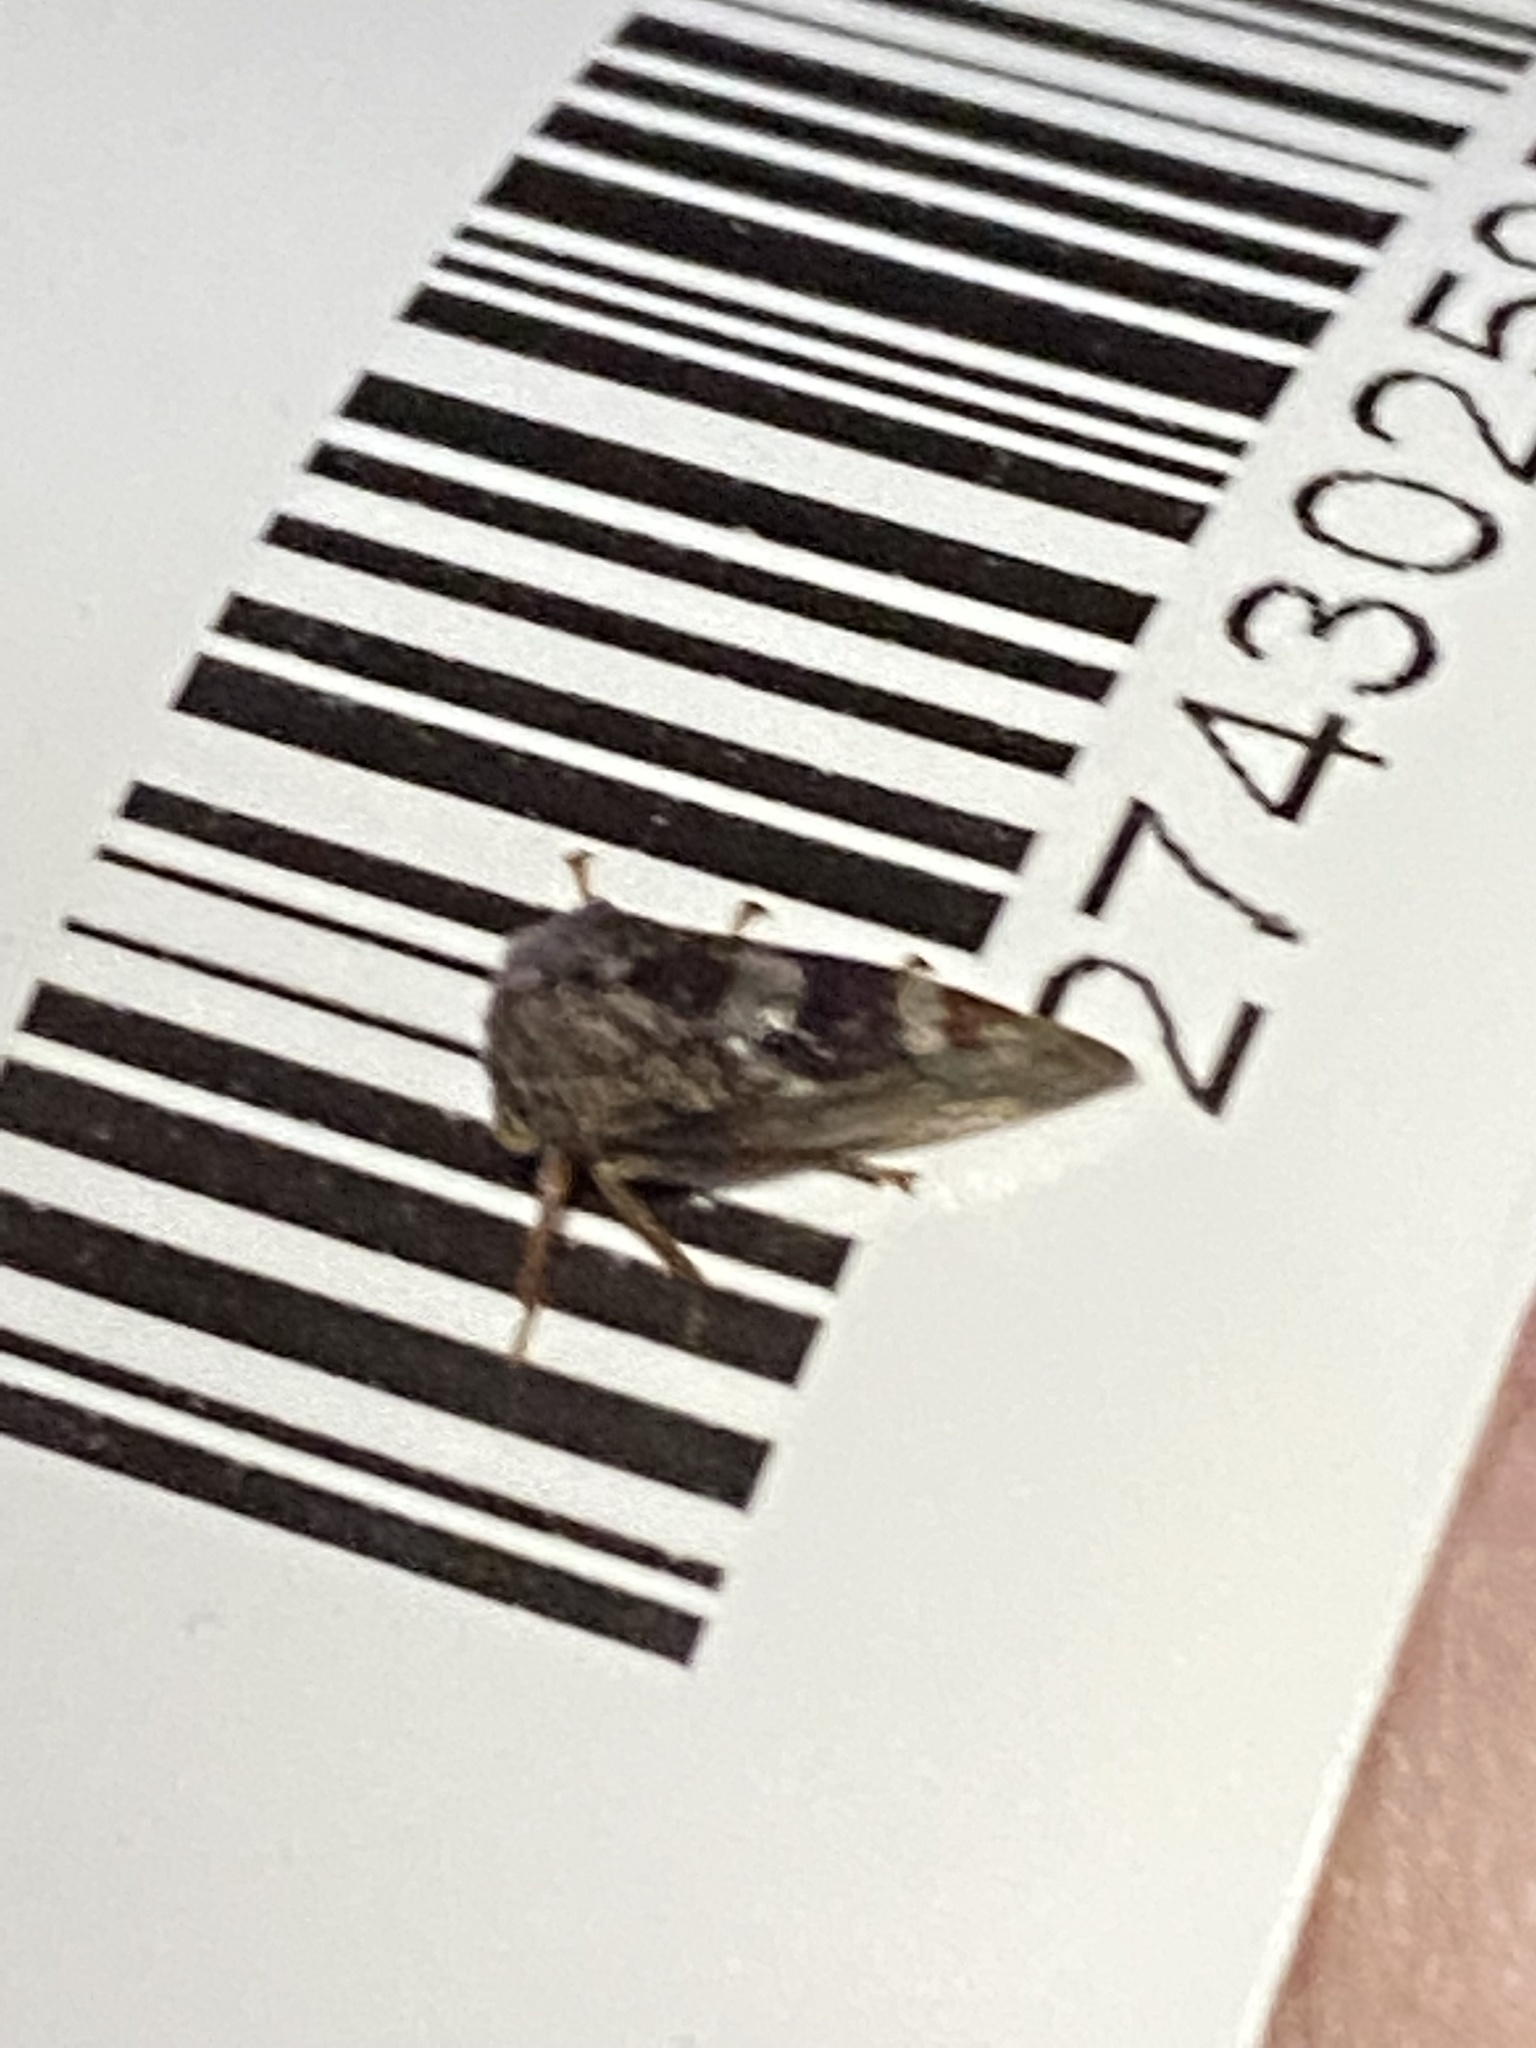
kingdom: Animalia
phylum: Arthropoda
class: Insecta
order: Hemiptera
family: Membracidae
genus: Cyrtolobus
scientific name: Cyrtolobus tuberosa
